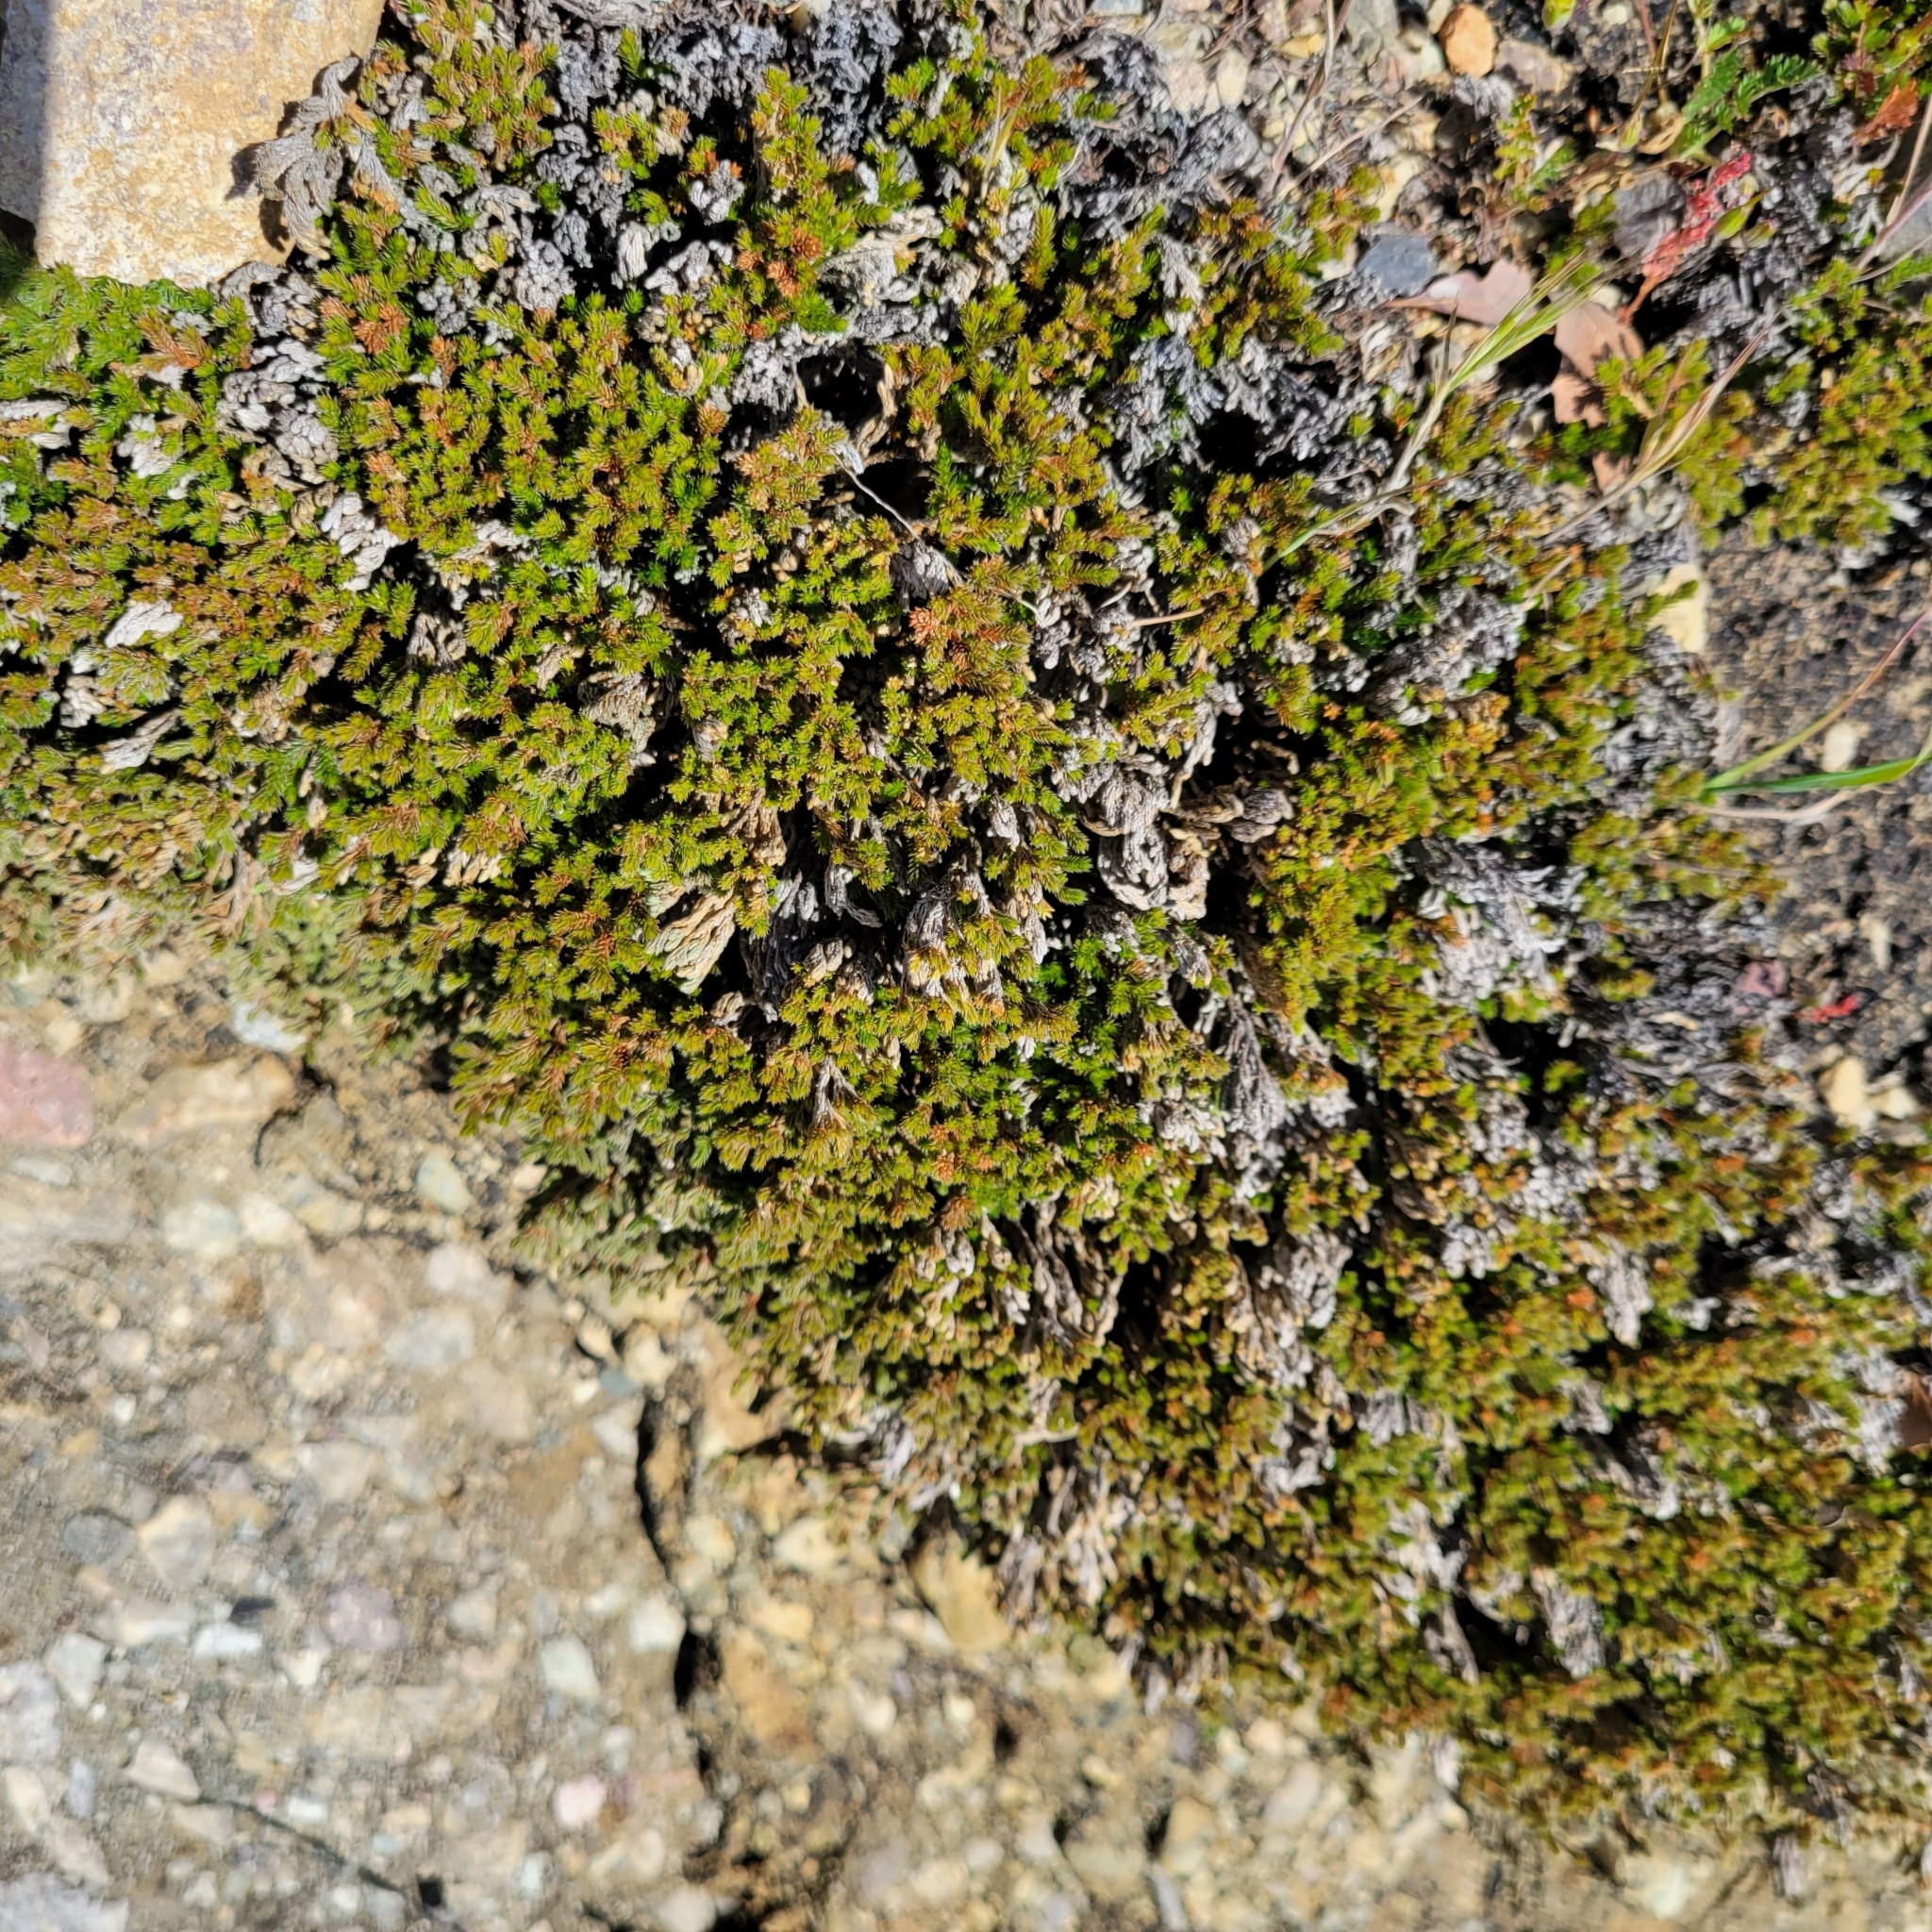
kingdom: Plantae
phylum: Tracheophyta
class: Lycopodiopsida
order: Selaginellales
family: Selaginellaceae
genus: Selaginella
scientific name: Selaginella bigelovii
